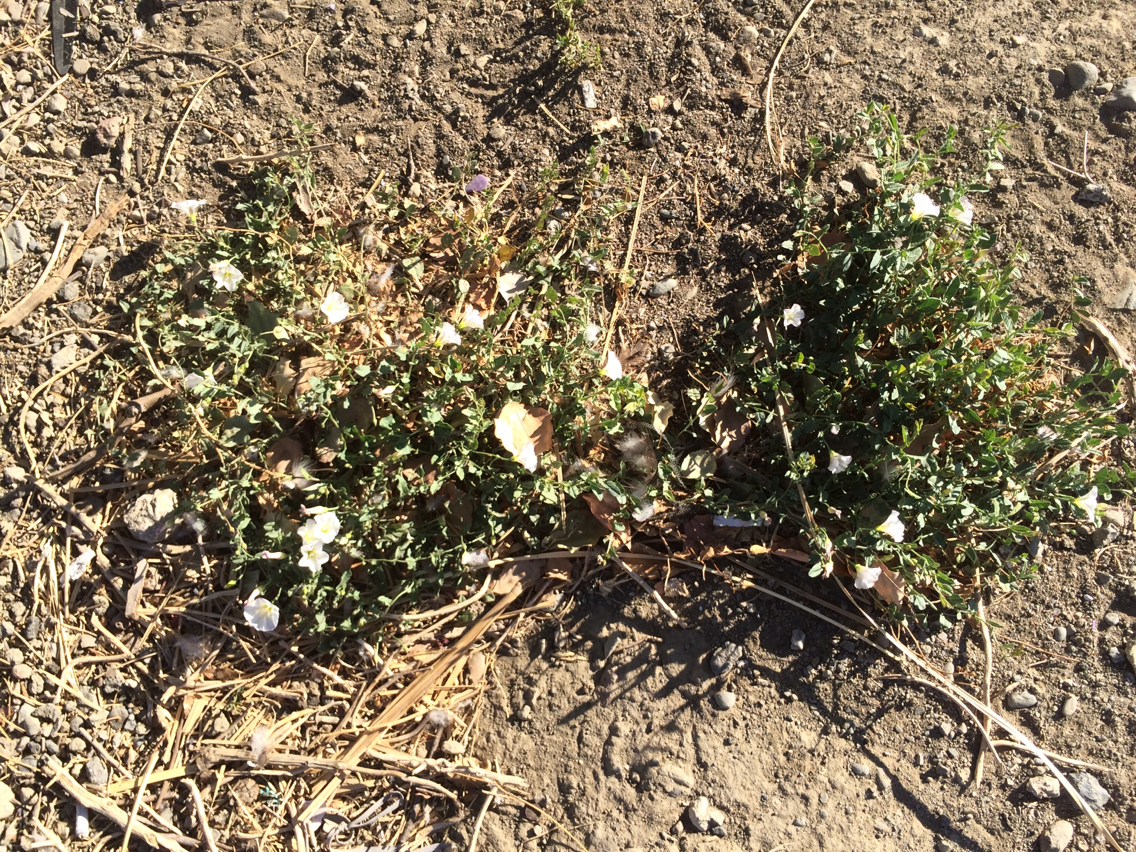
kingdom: Plantae
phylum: Tracheophyta
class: Magnoliopsida
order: Solanales
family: Convolvulaceae
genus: Convolvulus
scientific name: Convolvulus arvensis
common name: Field bindweed
